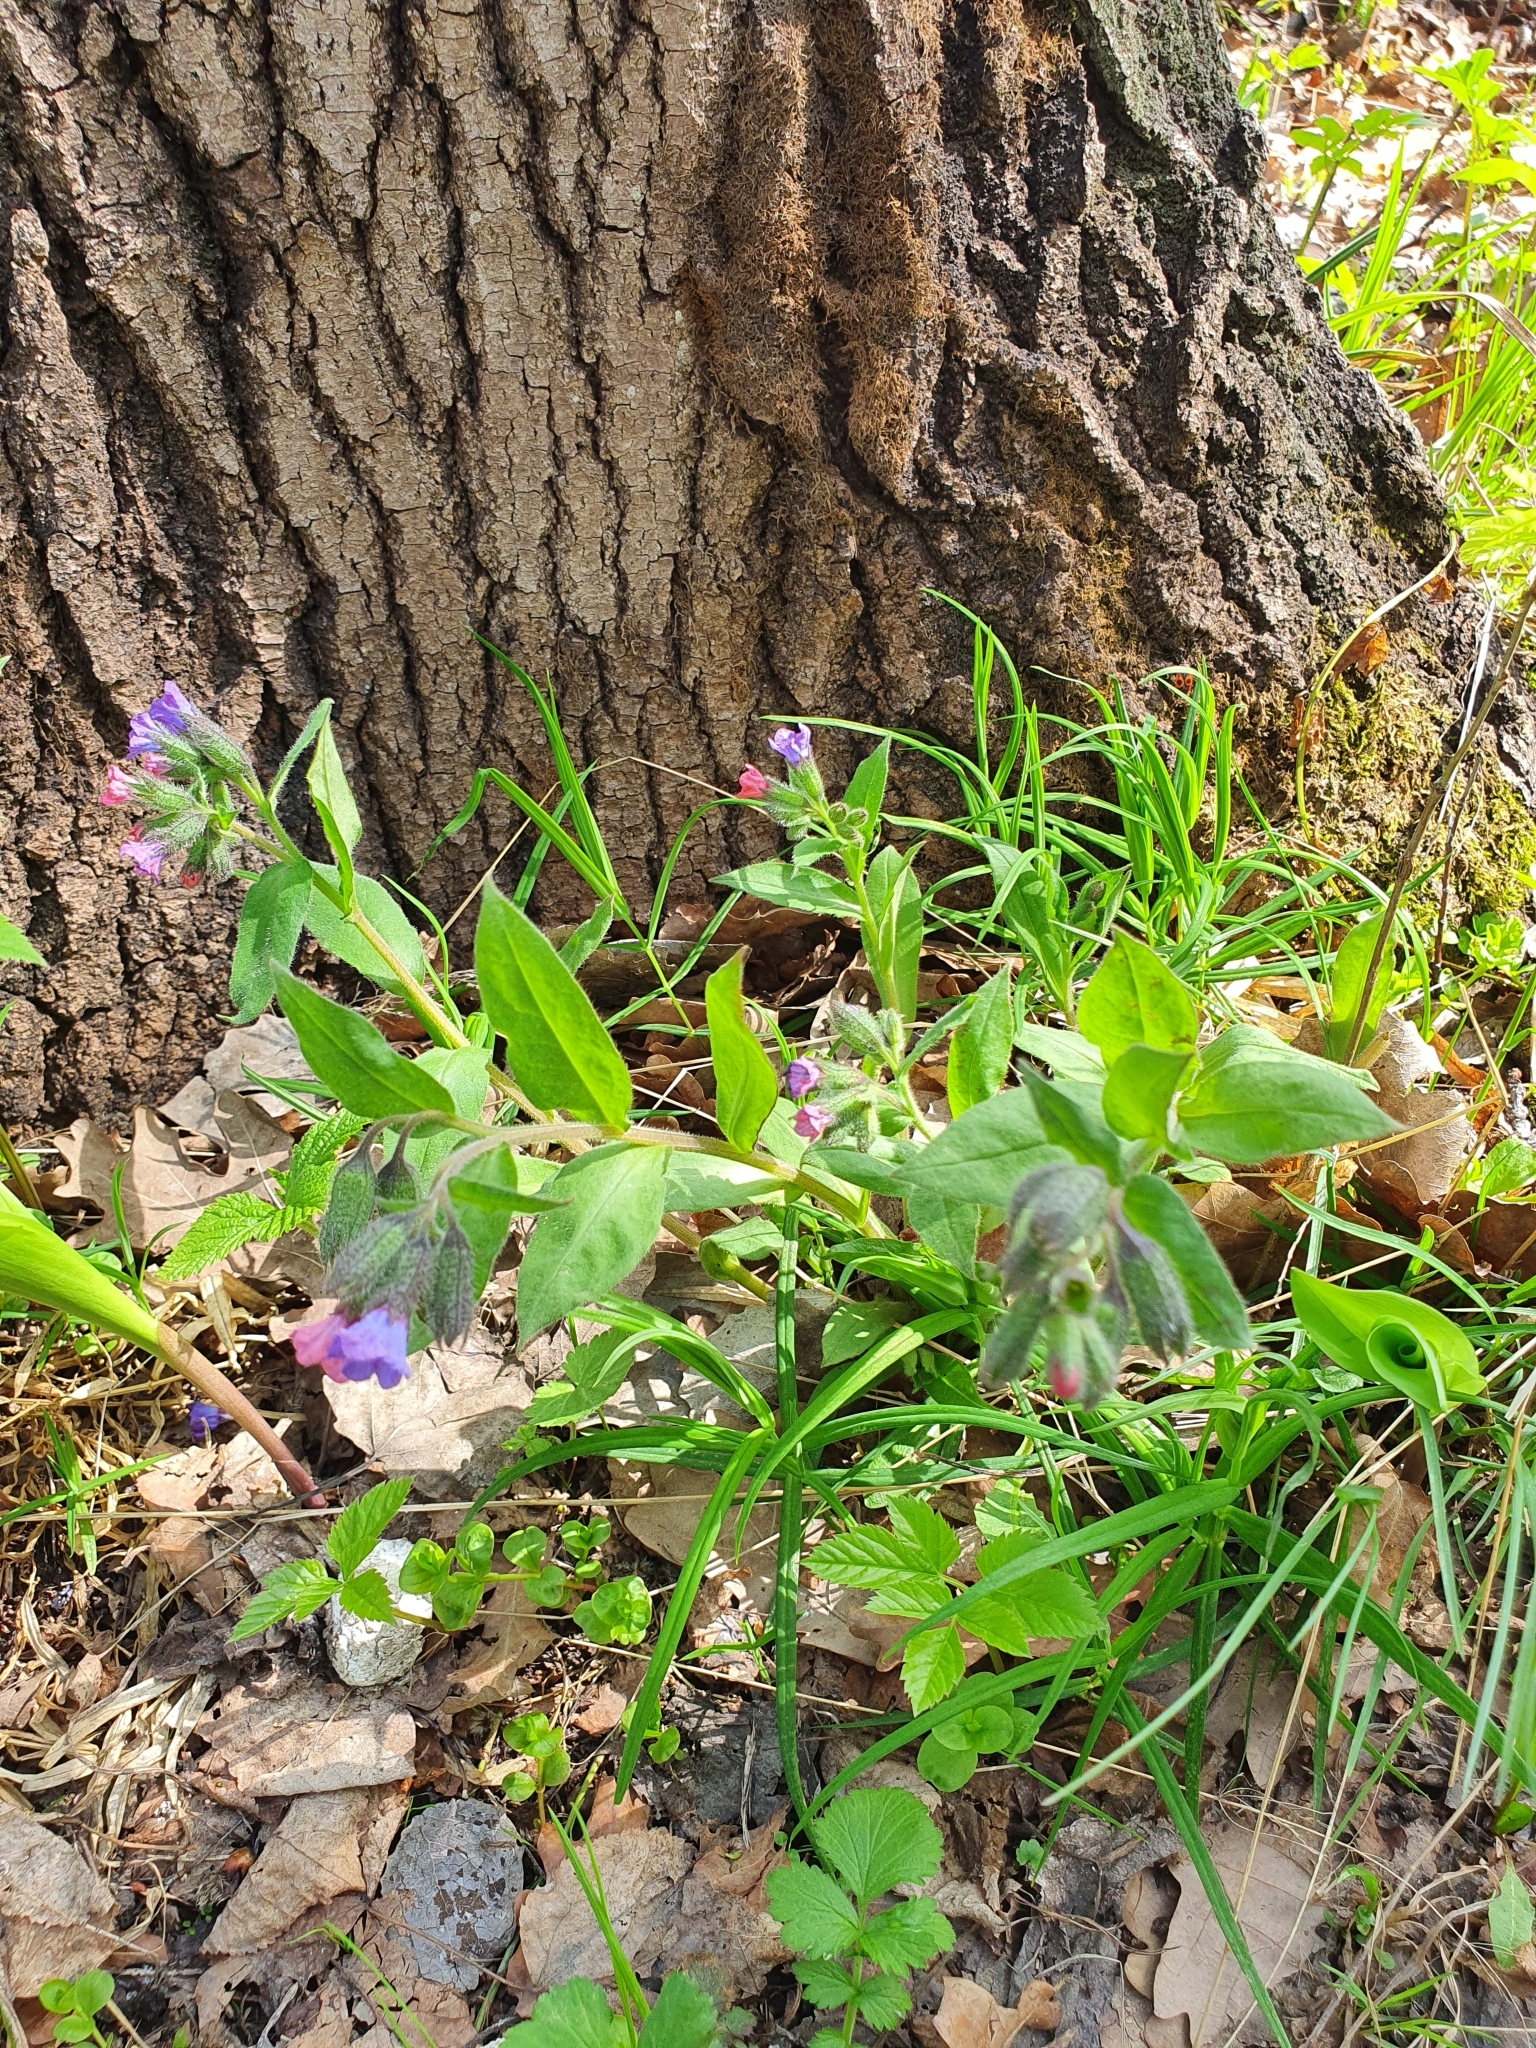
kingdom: Plantae
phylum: Tracheophyta
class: Magnoliopsida
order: Boraginales
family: Boraginaceae
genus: Pulmonaria
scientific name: Pulmonaria obscura
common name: Suffolk lungwort
